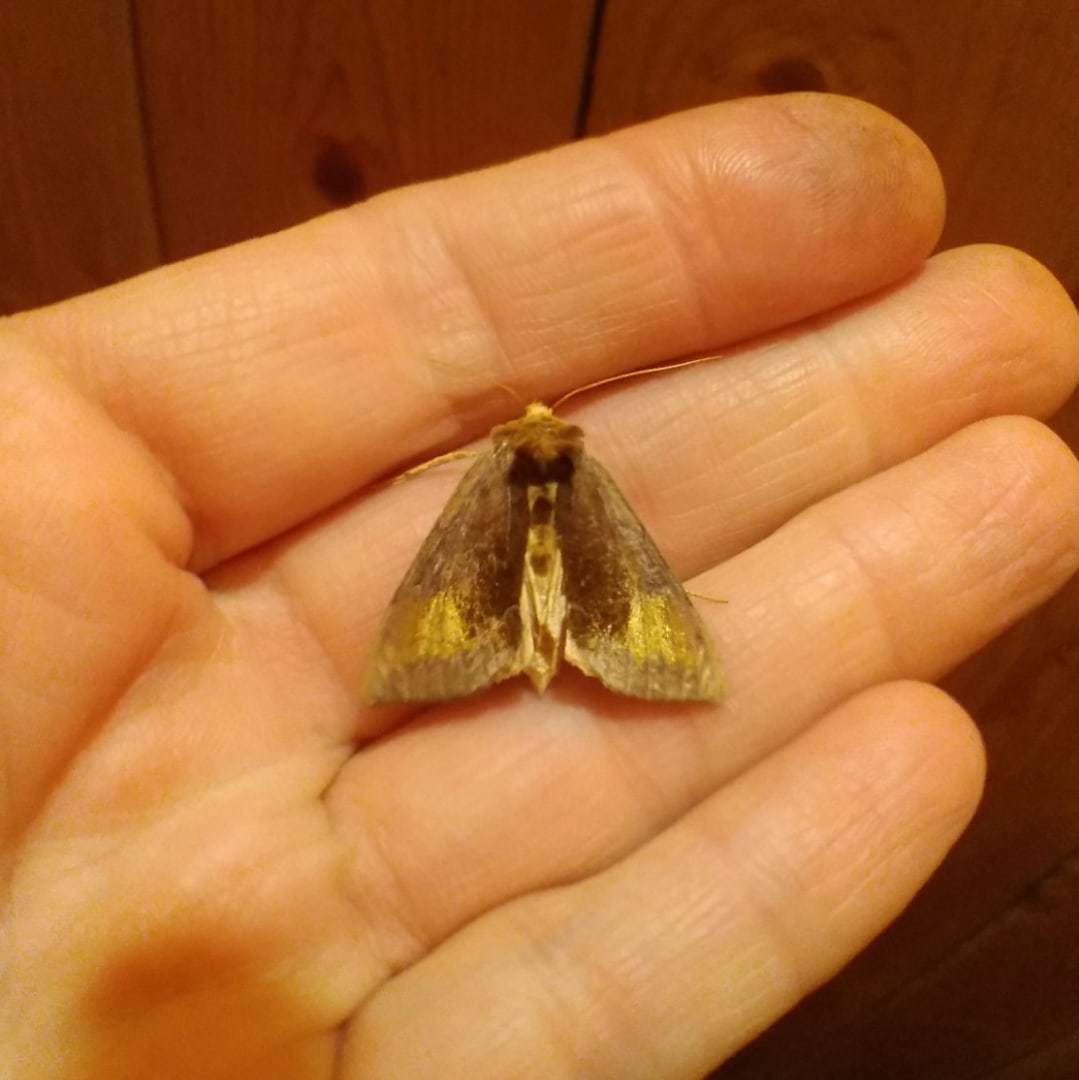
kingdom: Animalia
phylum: Arthropoda
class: Insecta
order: Lepidoptera
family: Noctuidae
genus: Diachrysia
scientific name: Diachrysia chryson
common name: Scarce burnished brass
